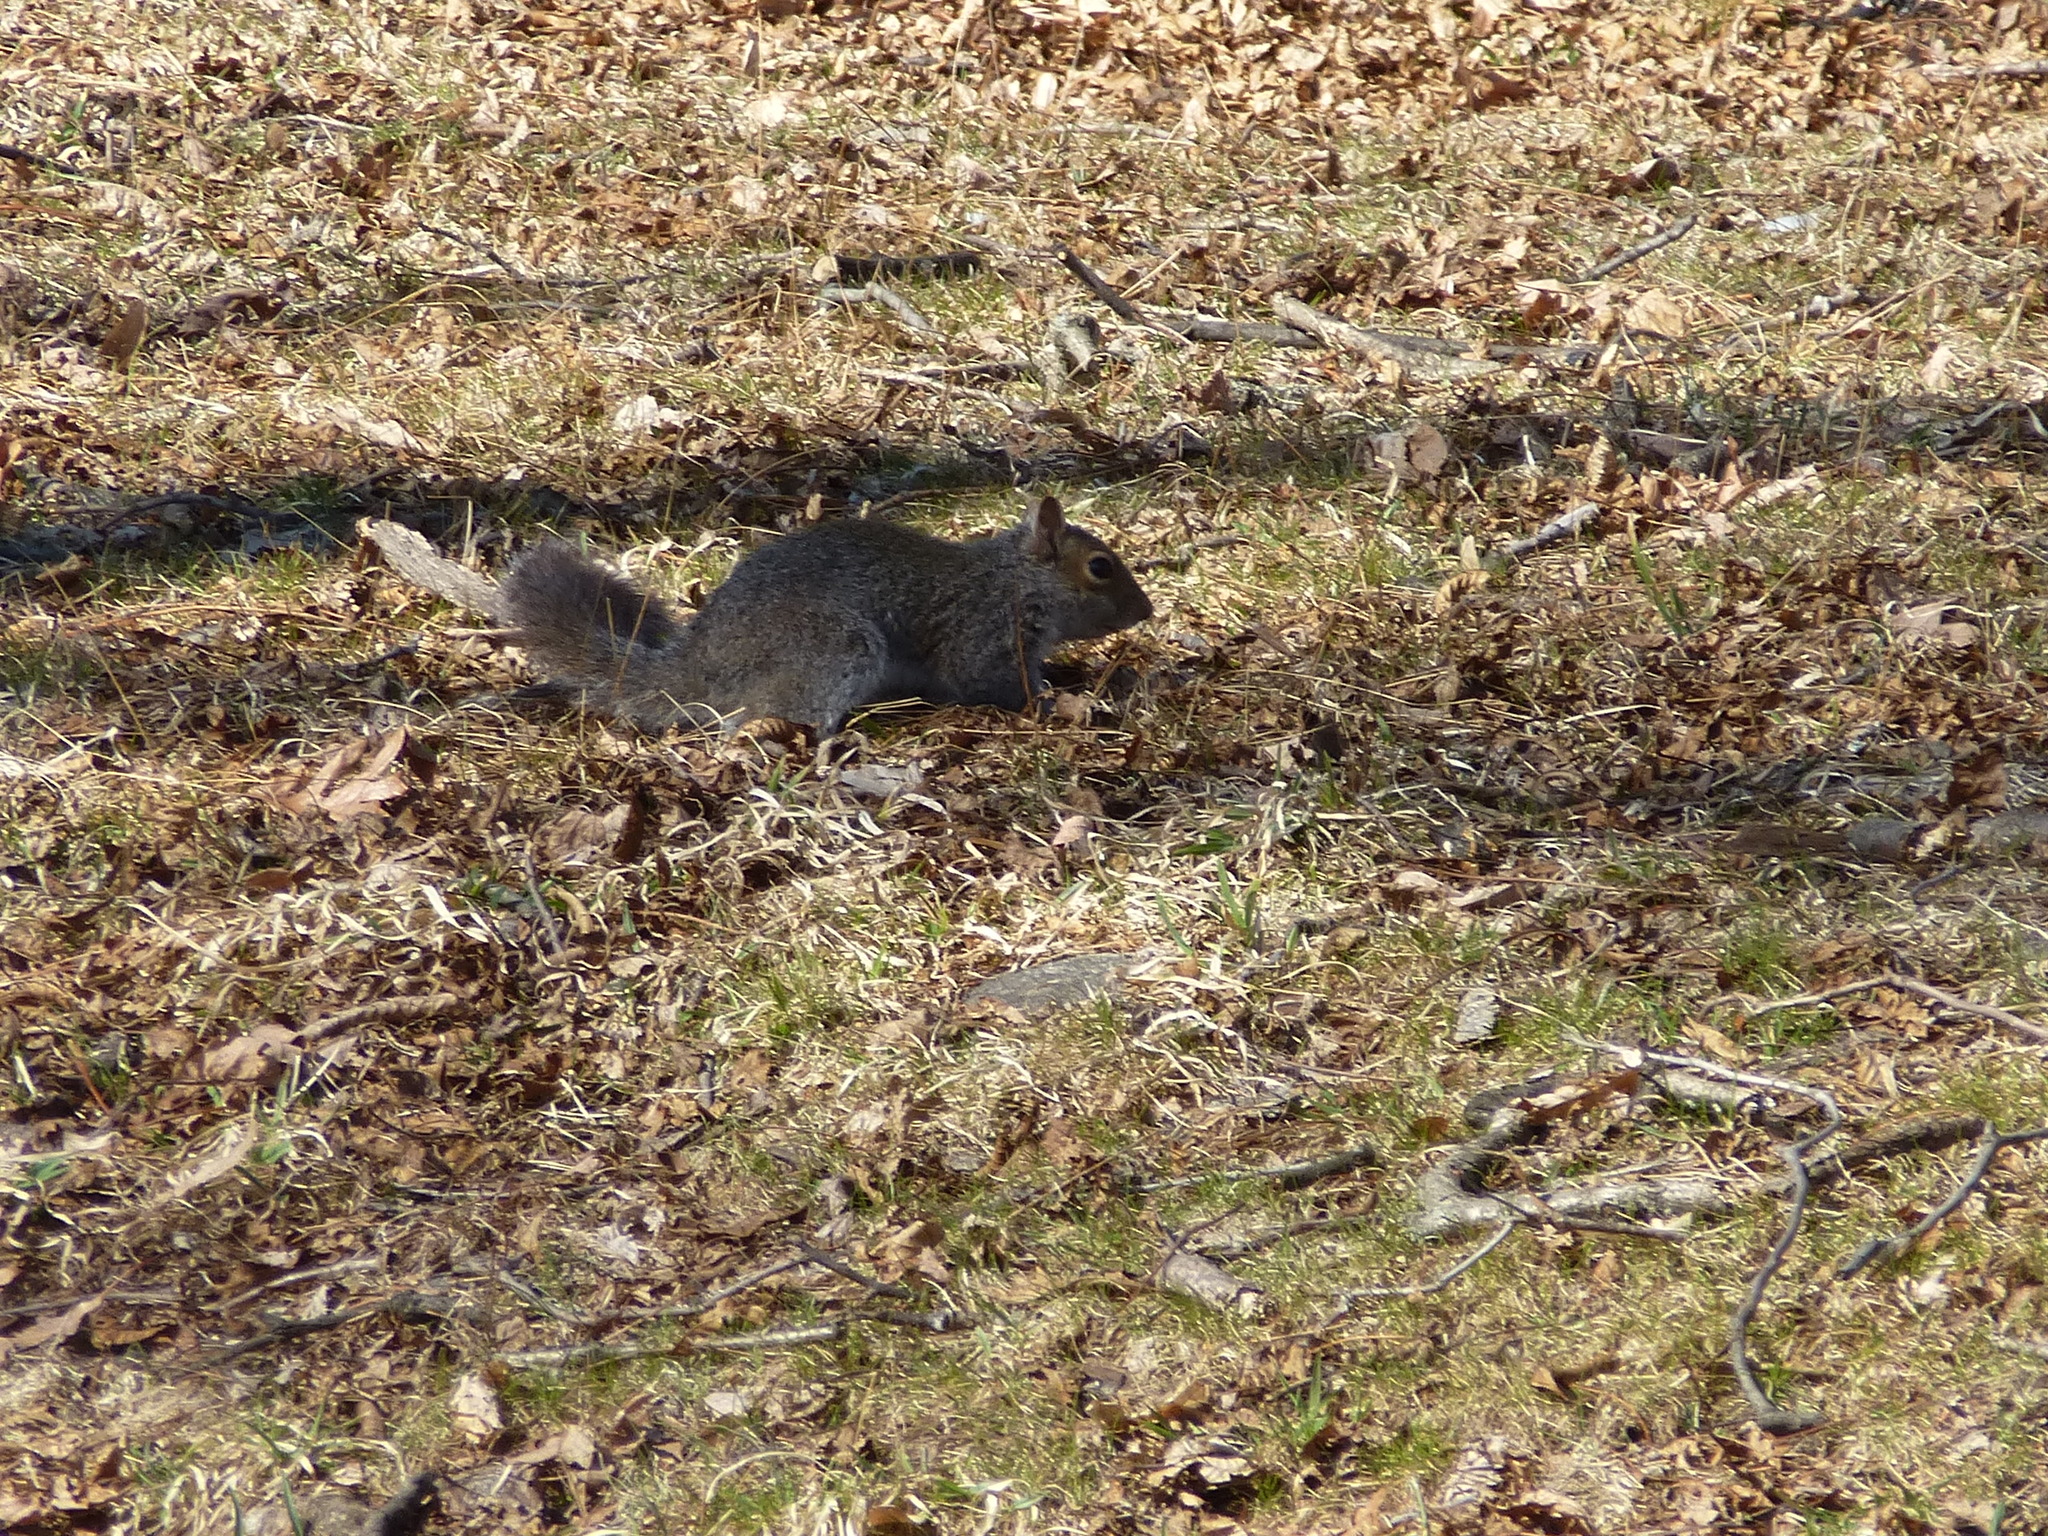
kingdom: Animalia
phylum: Chordata
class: Mammalia
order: Rodentia
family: Sciuridae
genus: Sciurus
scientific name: Sciurus carolinensis
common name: Eastern gray squirrel
